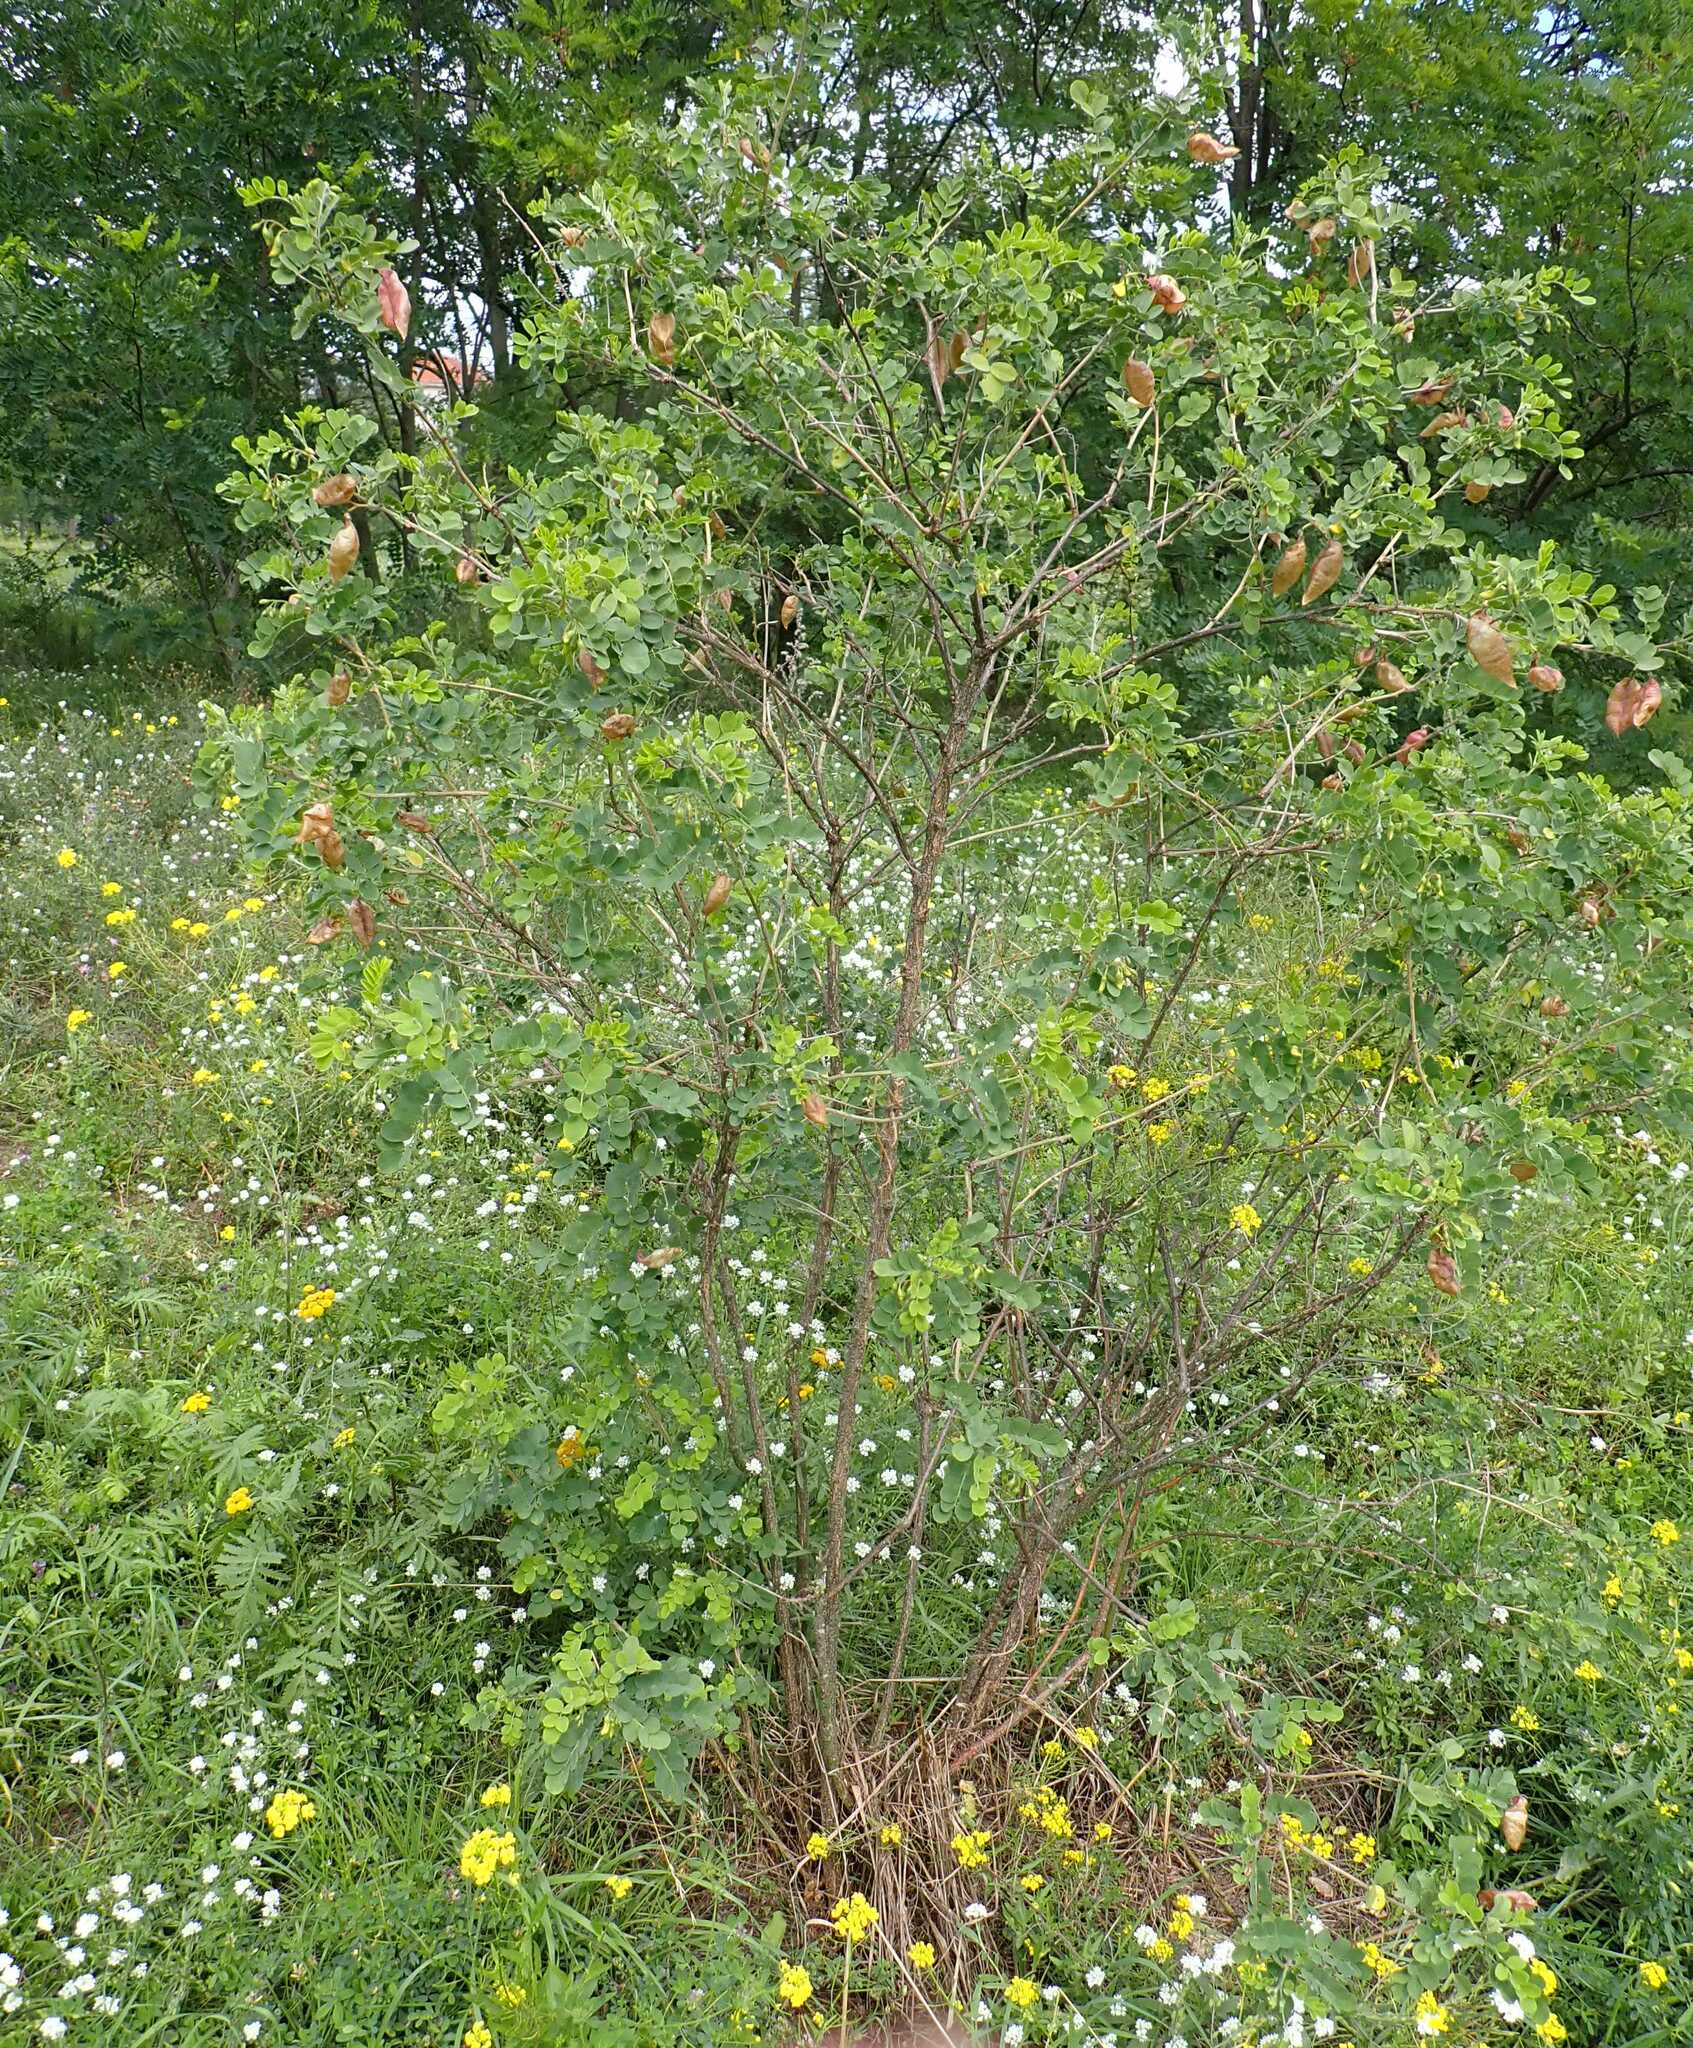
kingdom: Plantae
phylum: Tracheophyta
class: Magnoliopsida
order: Fabales
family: Fabaceae
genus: Colutea
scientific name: Colutea arborescens
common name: Bladder-senna
